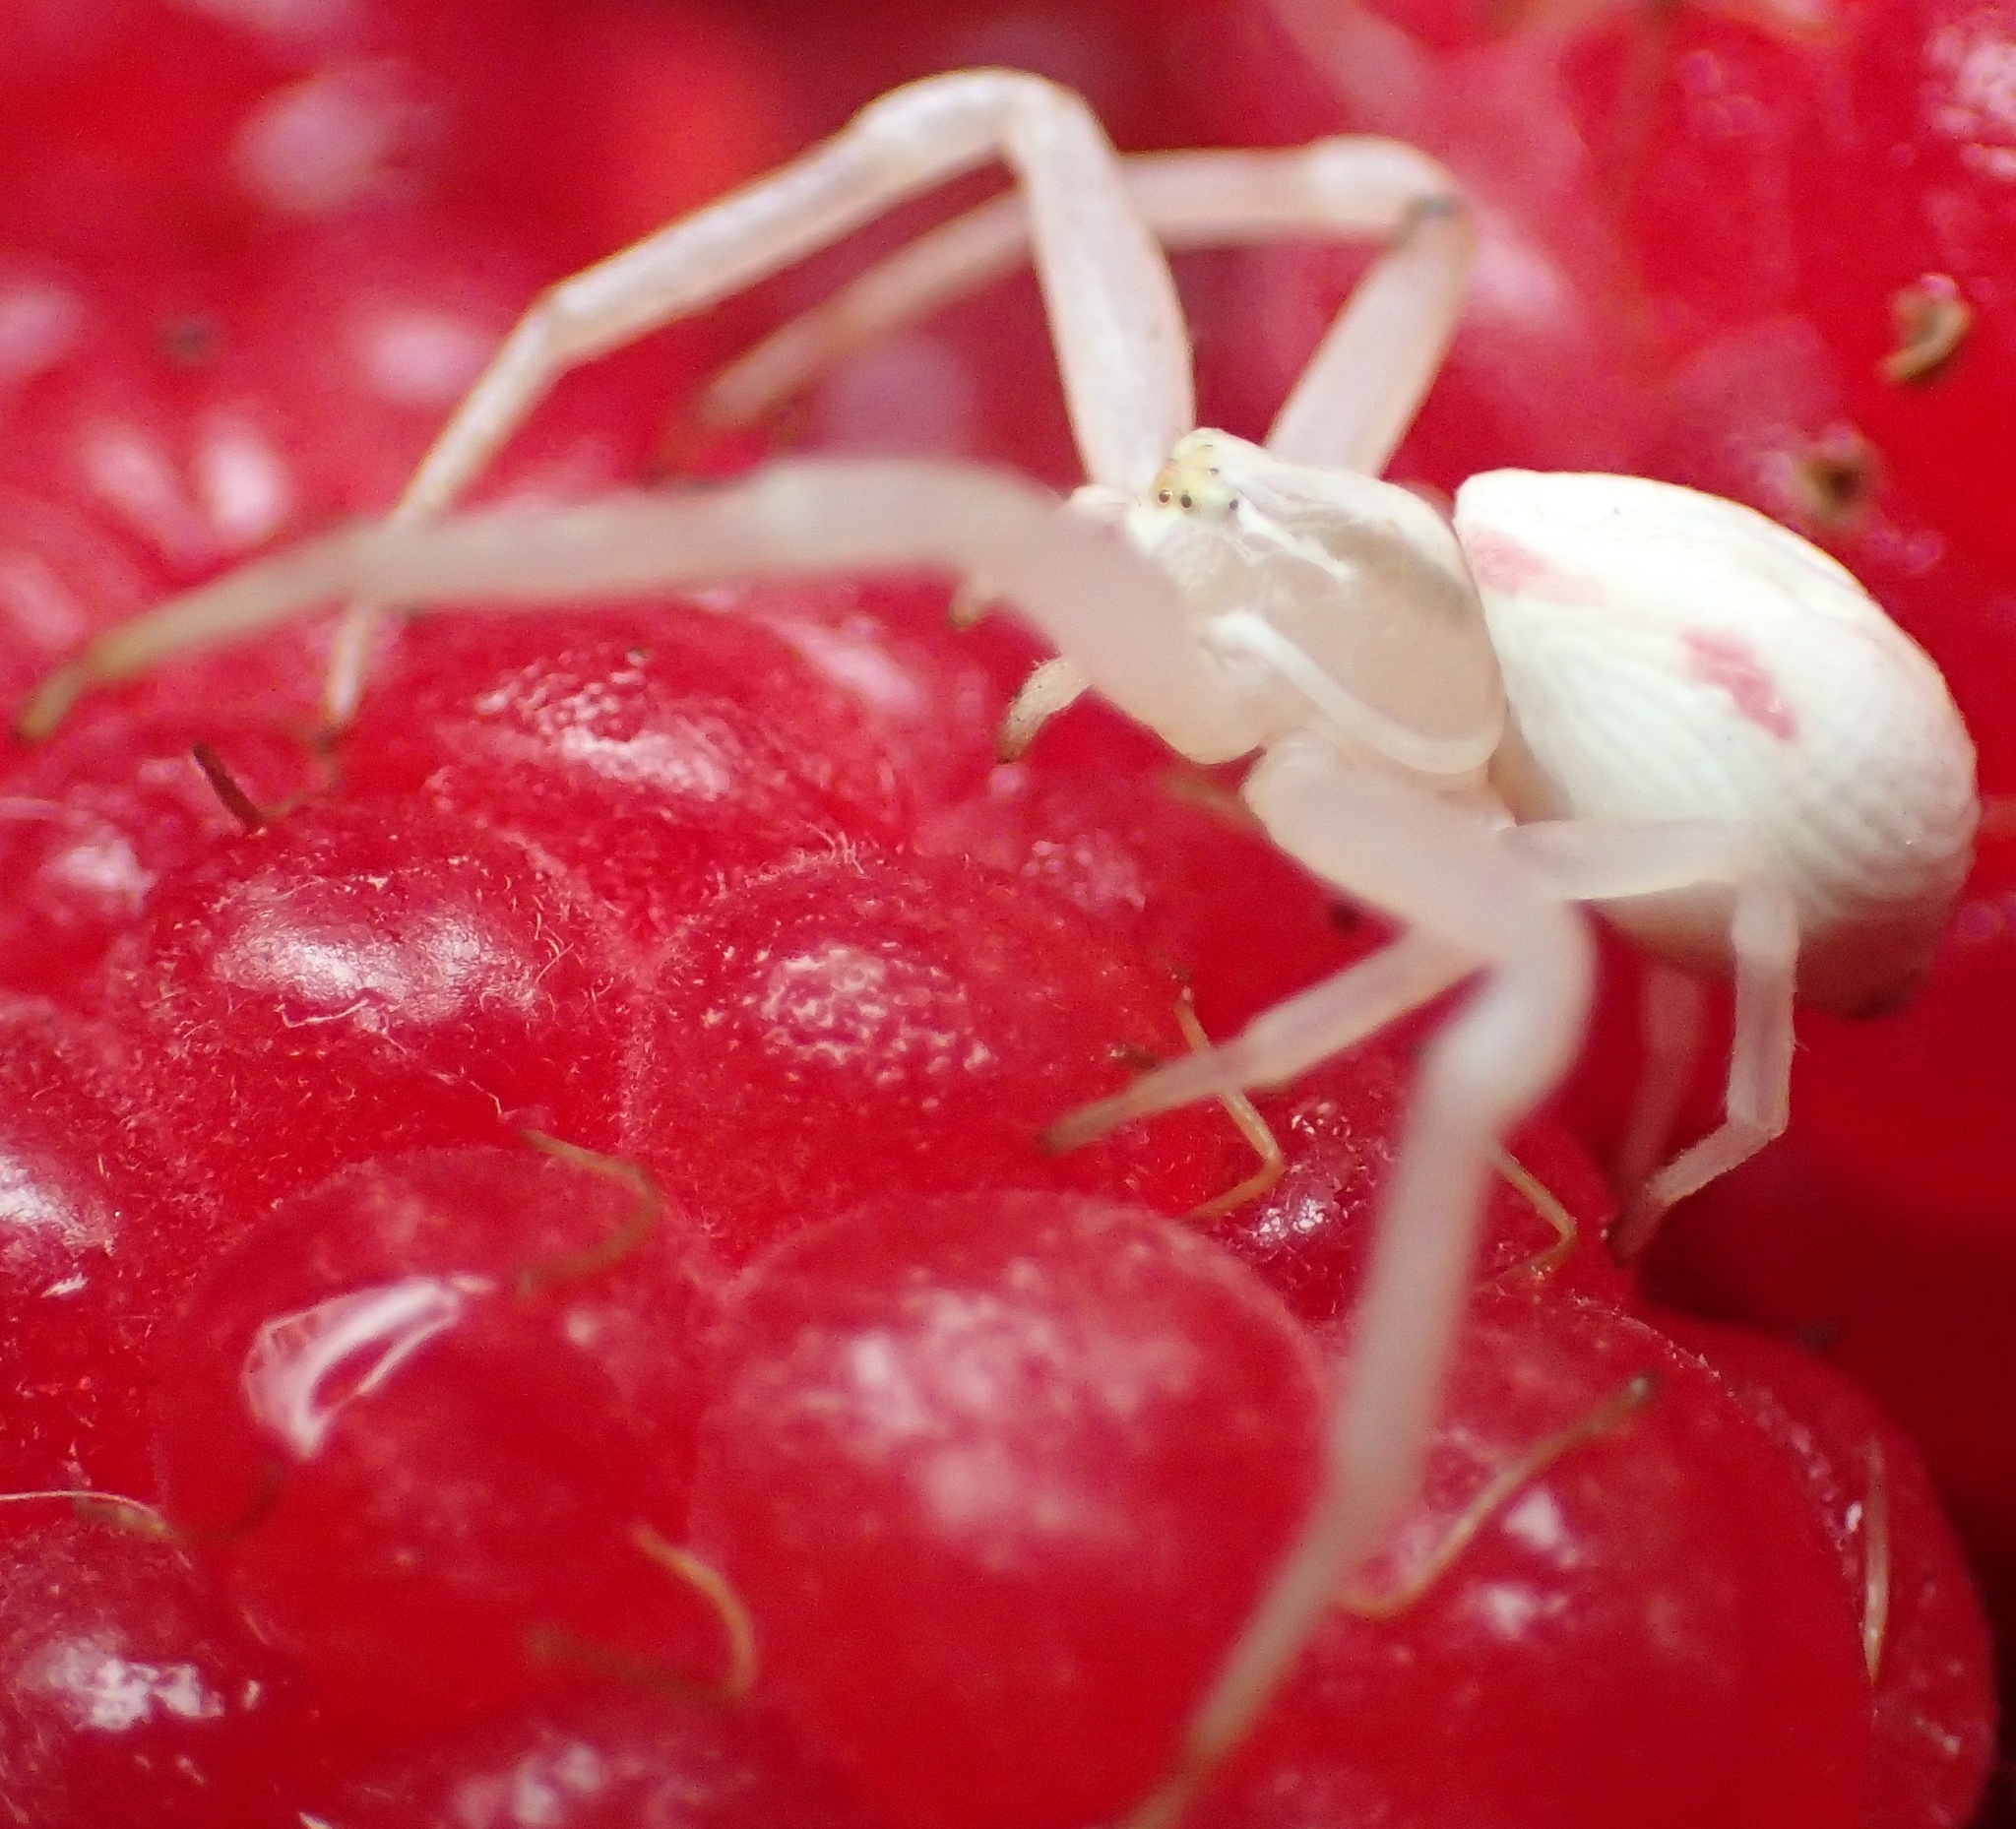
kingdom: Animalia
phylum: Arthropoda
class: Arachnida
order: Araneae
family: Thomisidae
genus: Misumena
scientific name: Misumena vatia
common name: Goldenrod crab spider
